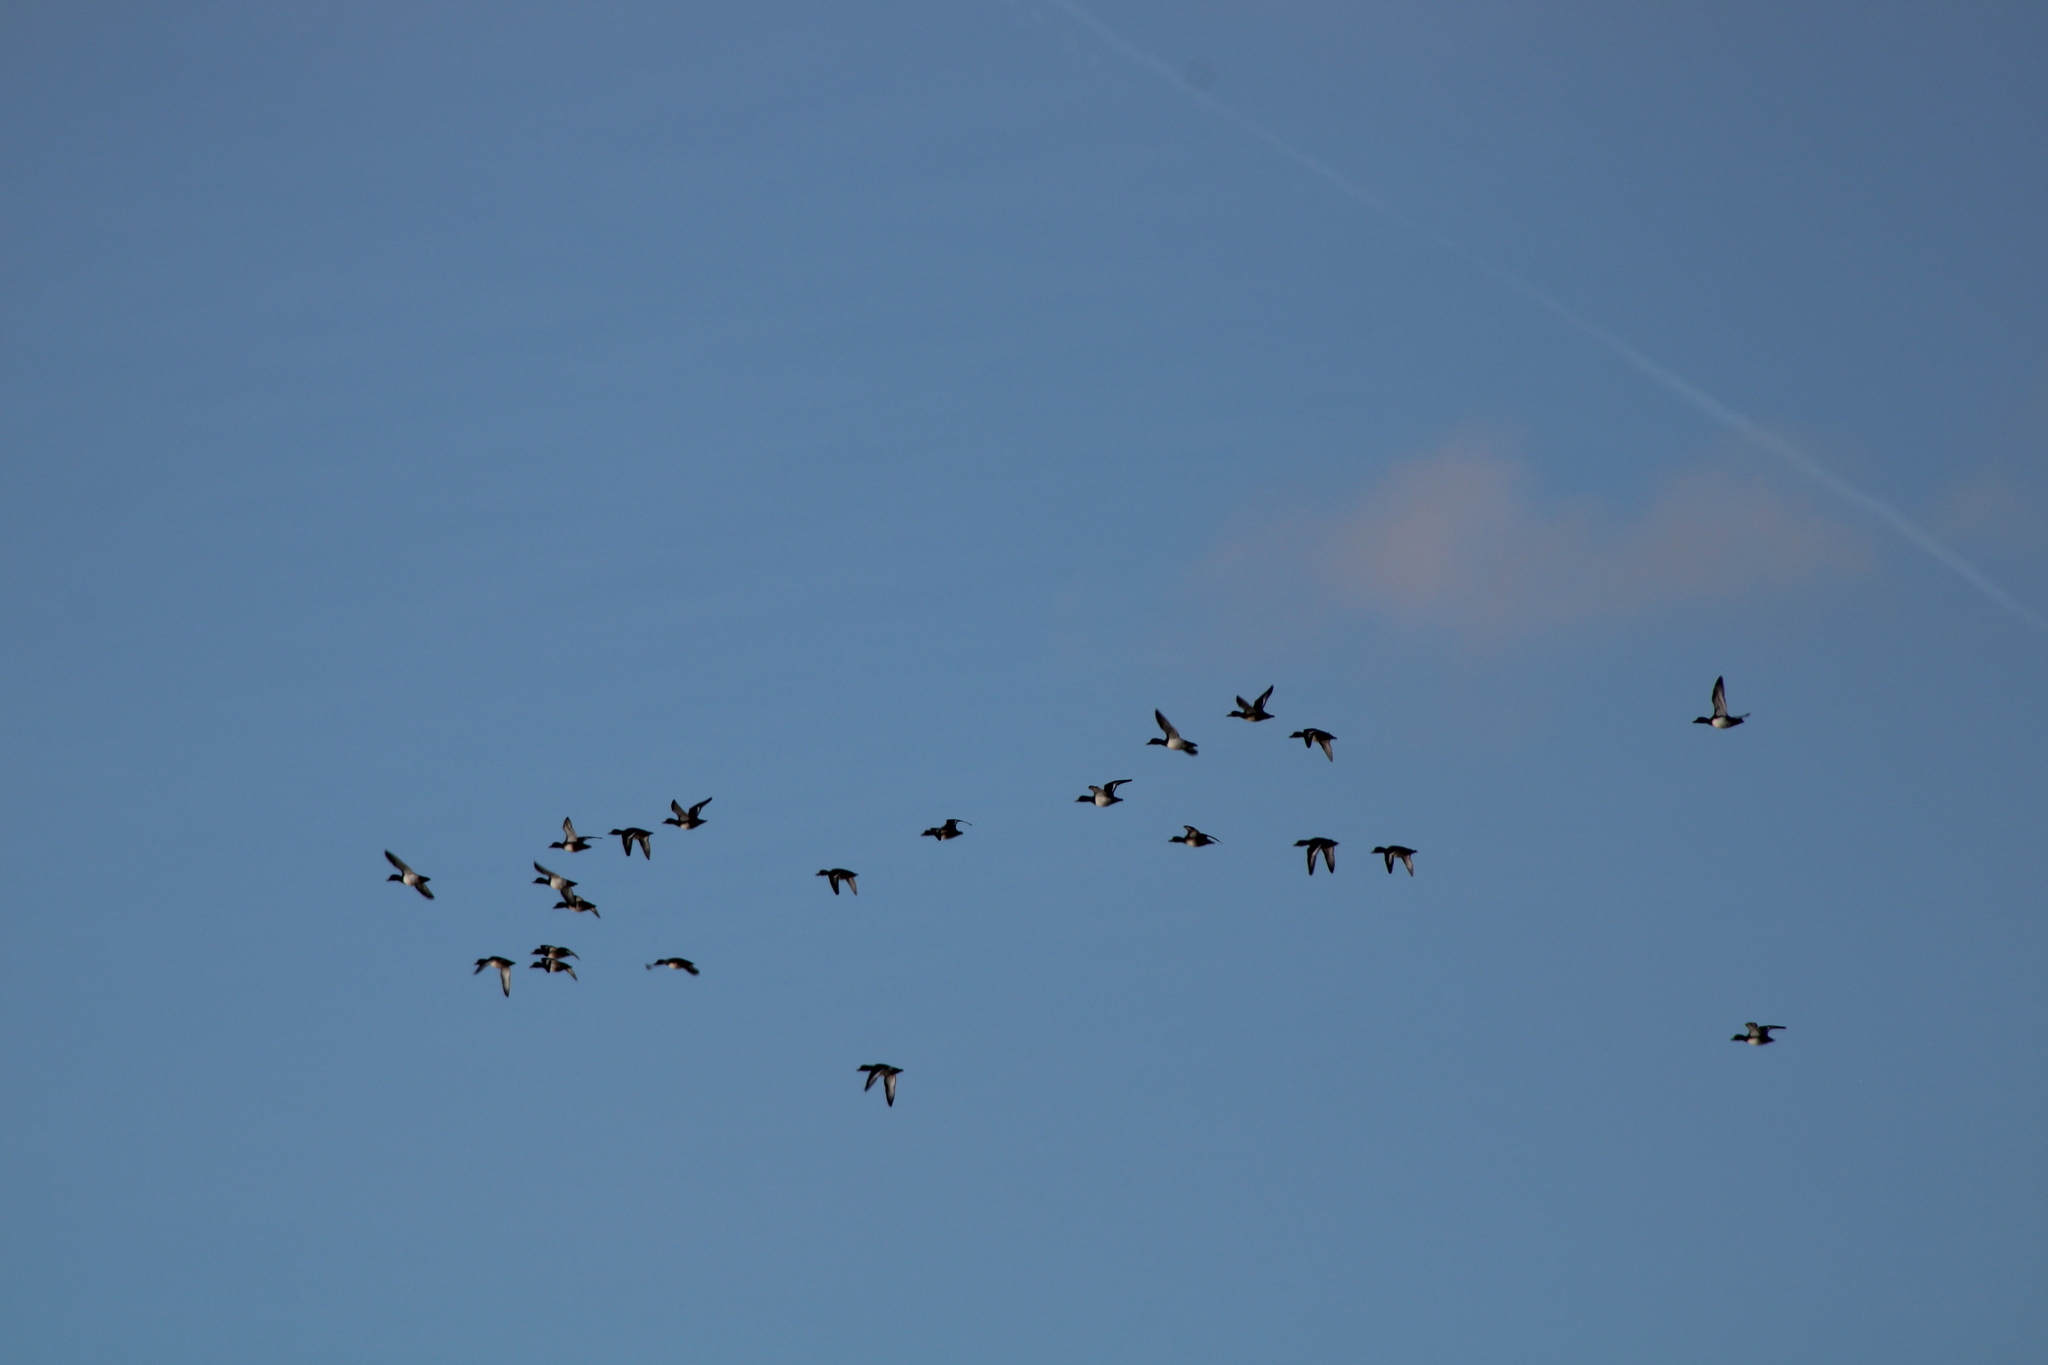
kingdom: Animalia
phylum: Chordata
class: Aves
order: Anseriformes
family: Anatidae
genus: Aythya
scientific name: Aythya fuligula
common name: Tufted duck
